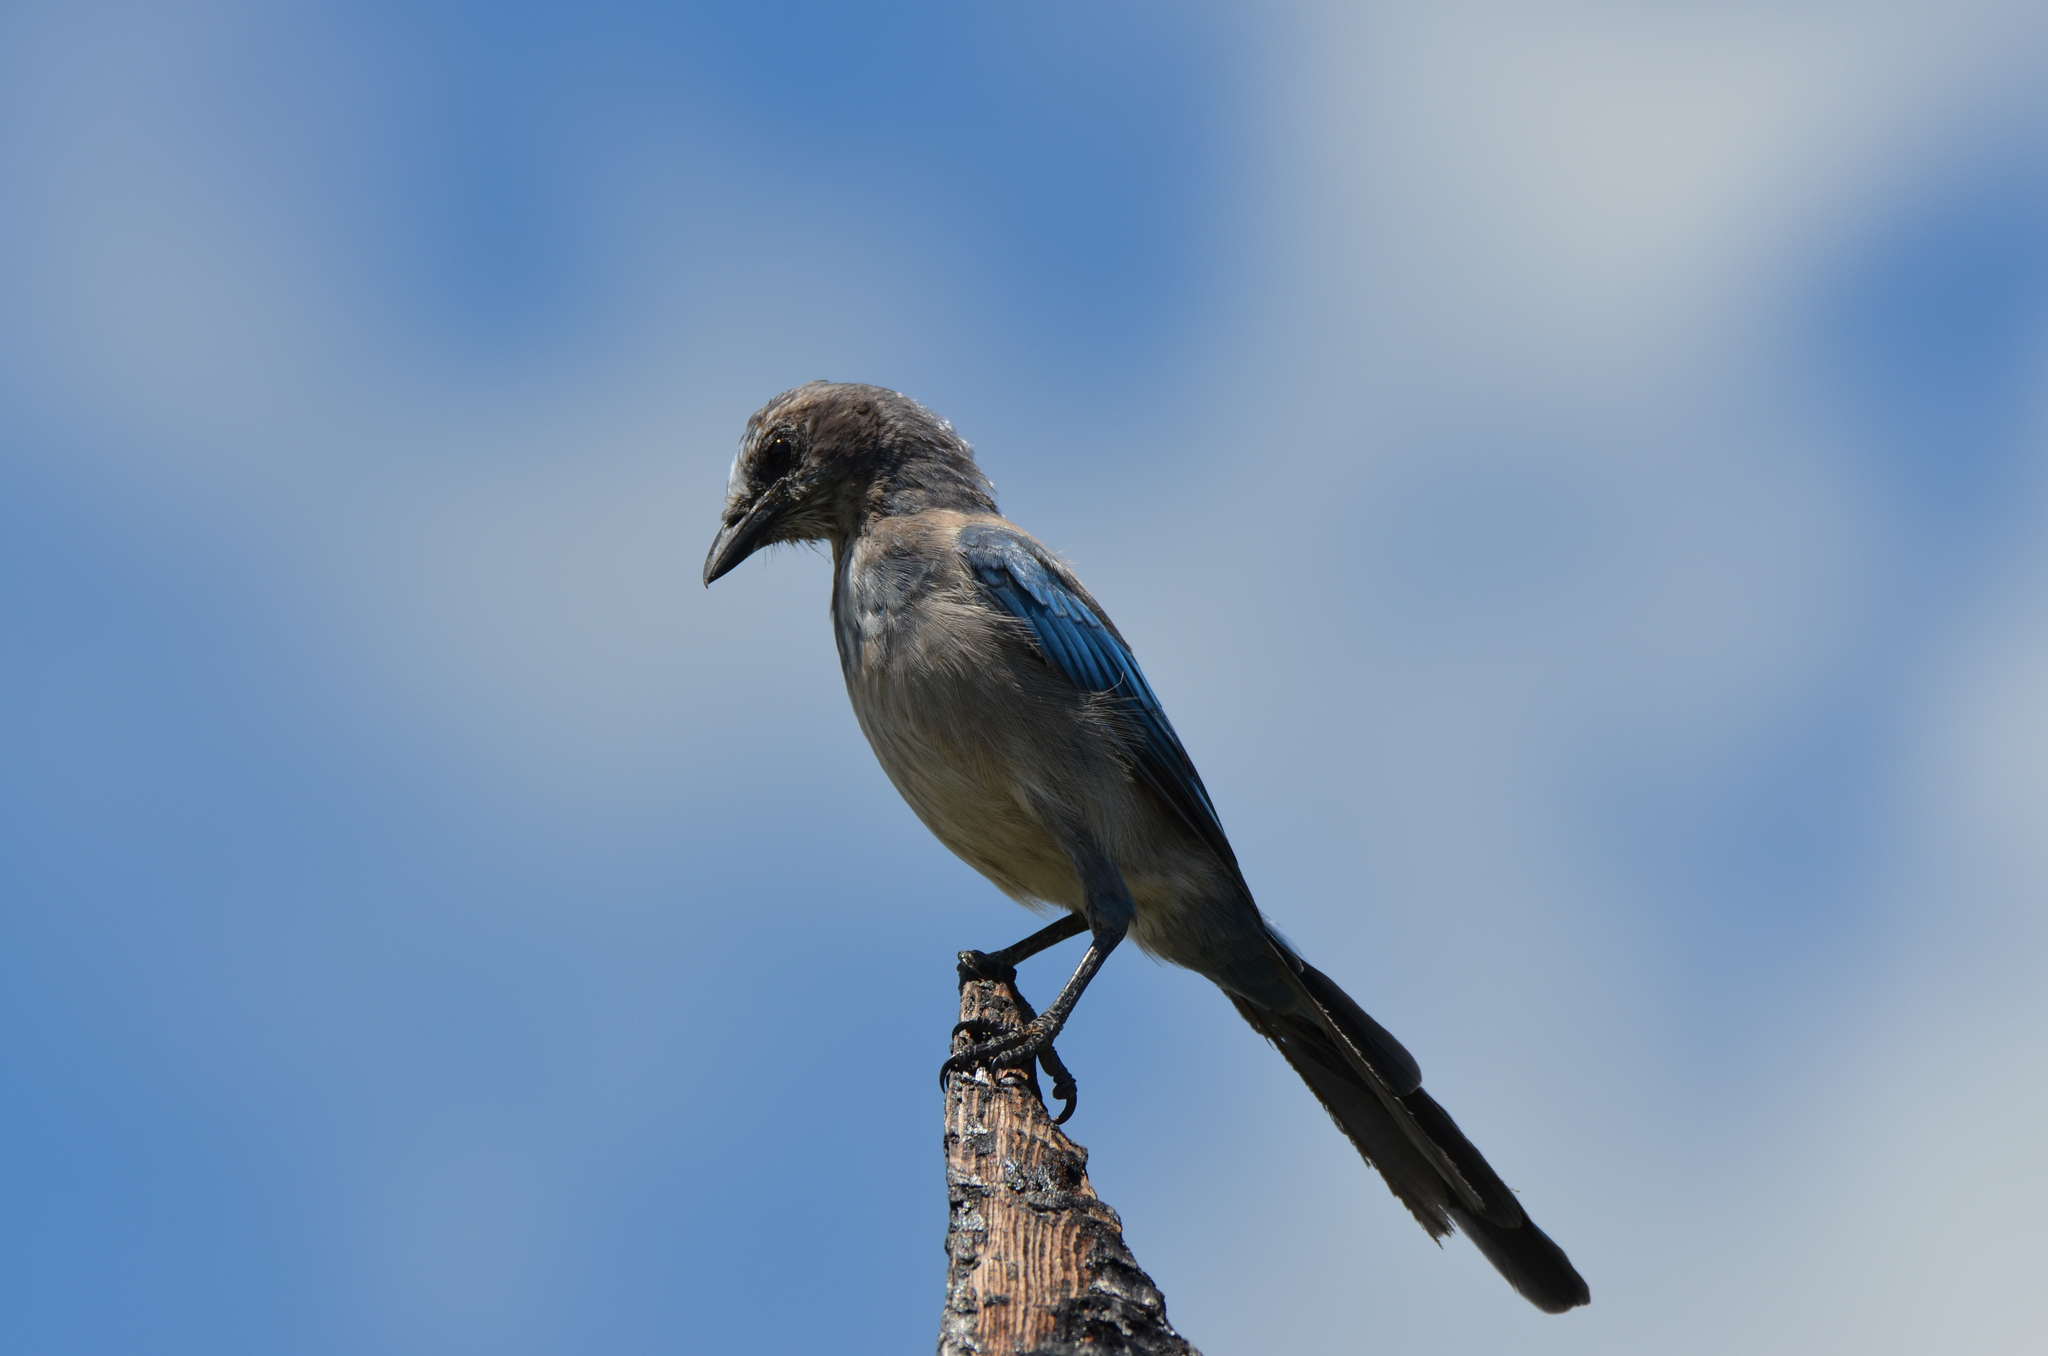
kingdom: Animalia
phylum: Chordata
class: Aves
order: Passeriformes
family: Corvidae
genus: Aphelocoma
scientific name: Aphelocoma coerulescens
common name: Florida scrub jay
